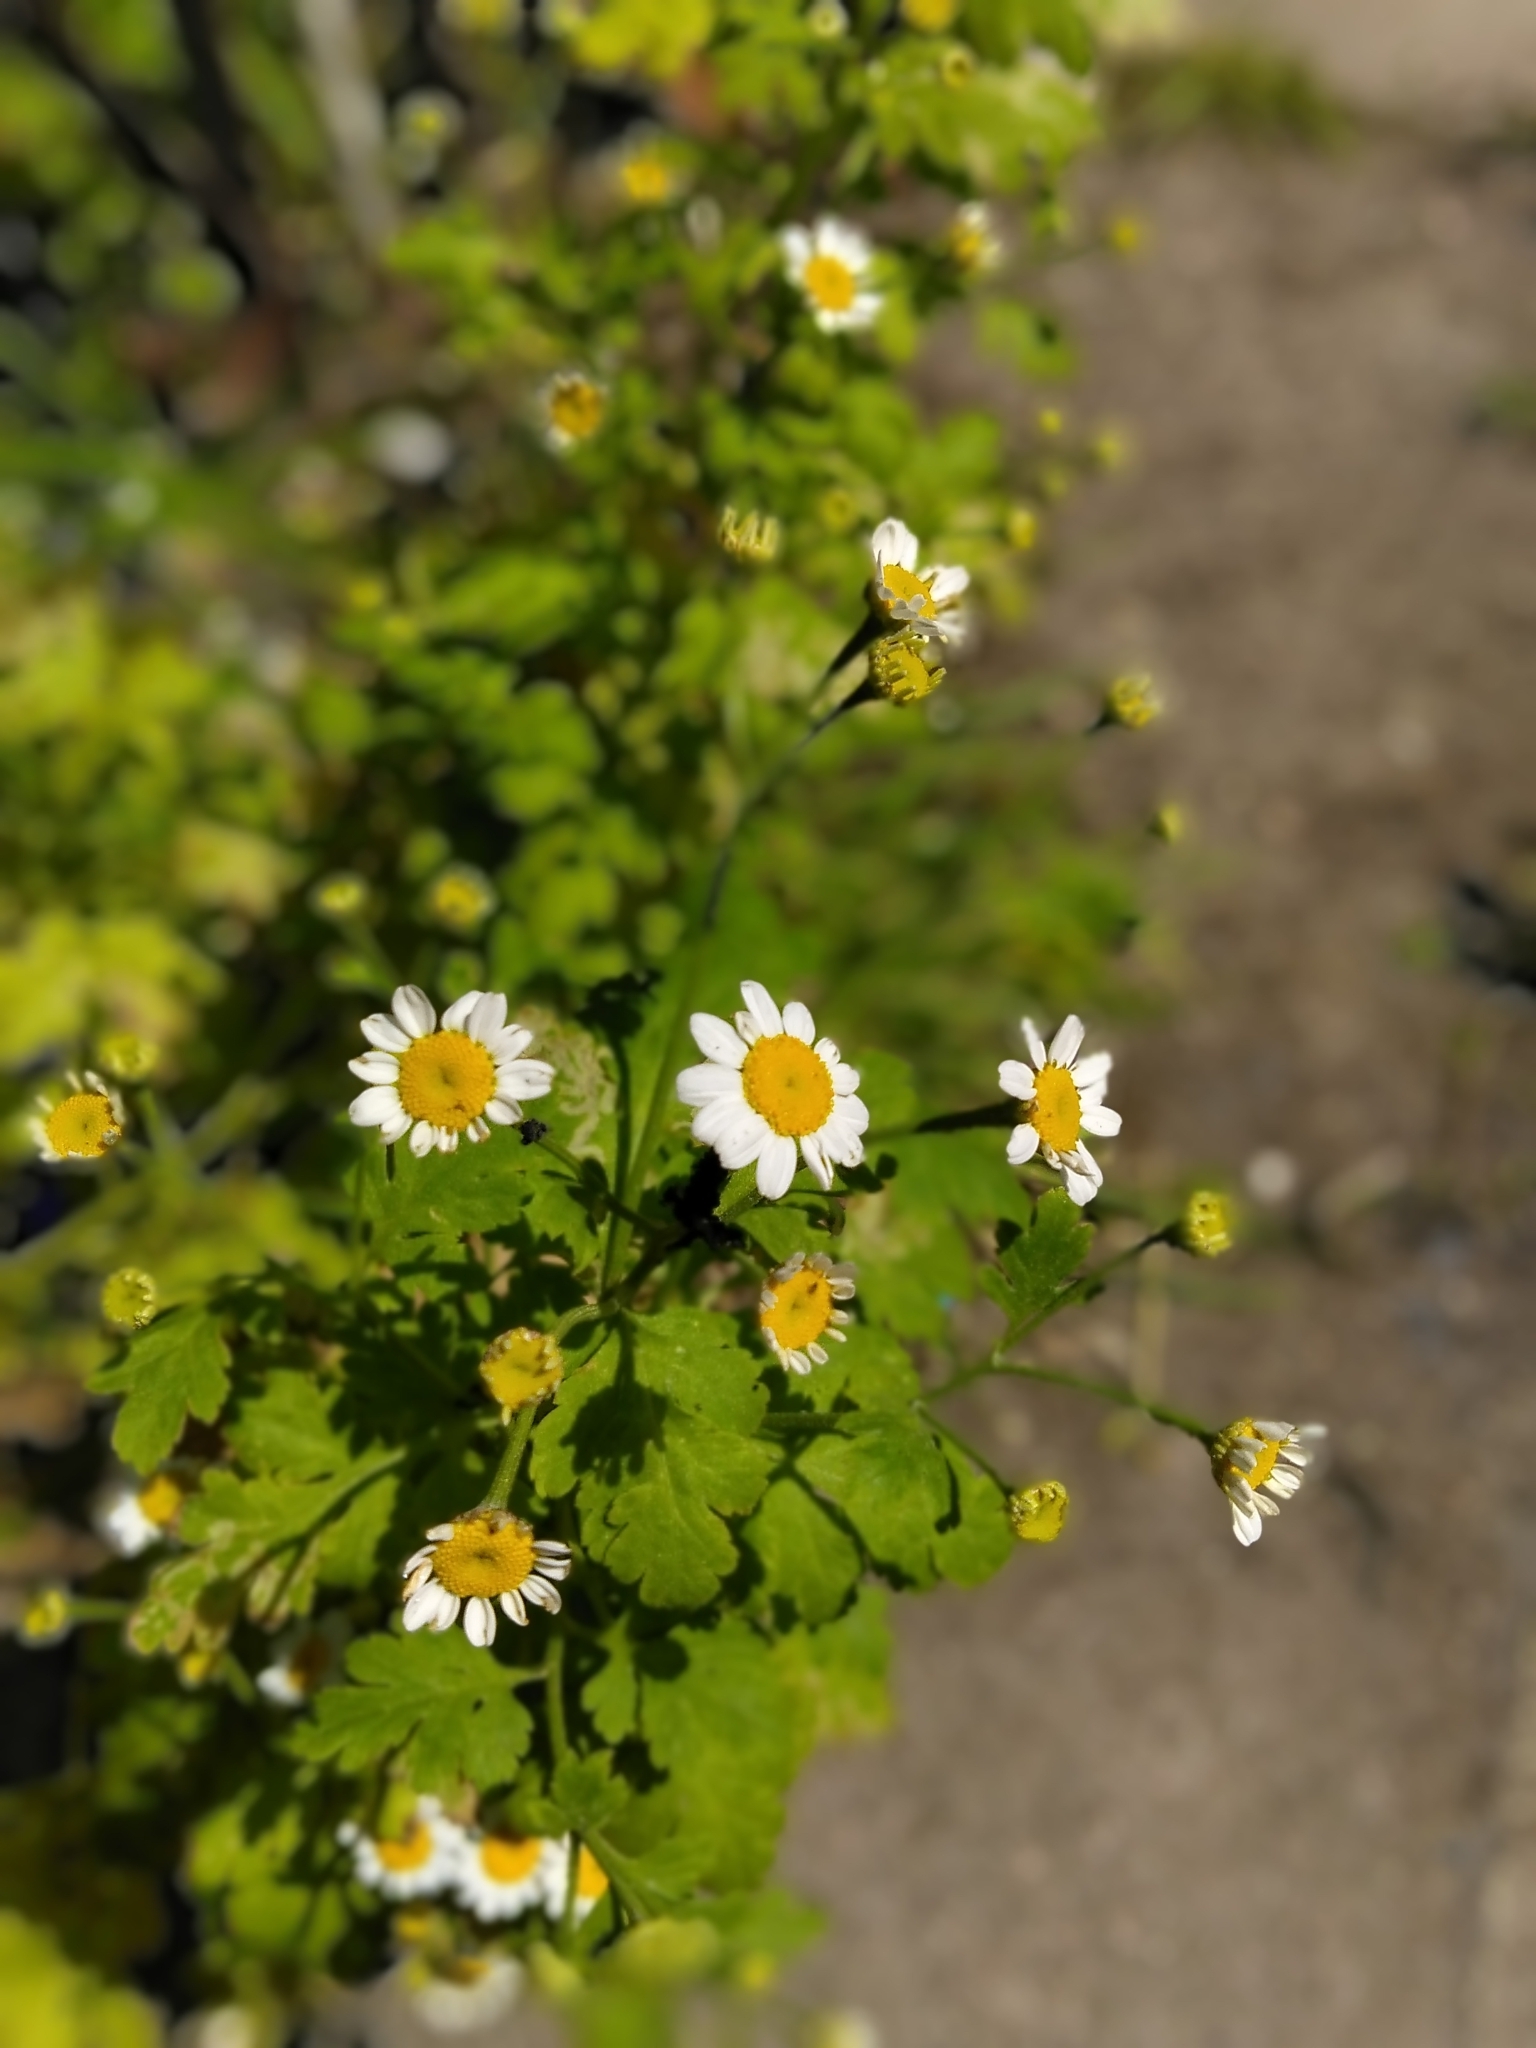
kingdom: Plantae
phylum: Tracheophyta
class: Magnoliopsida
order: Asterales
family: Asteraceae
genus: Tanacetum
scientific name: Tanacetum parthenium
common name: Feverfew
